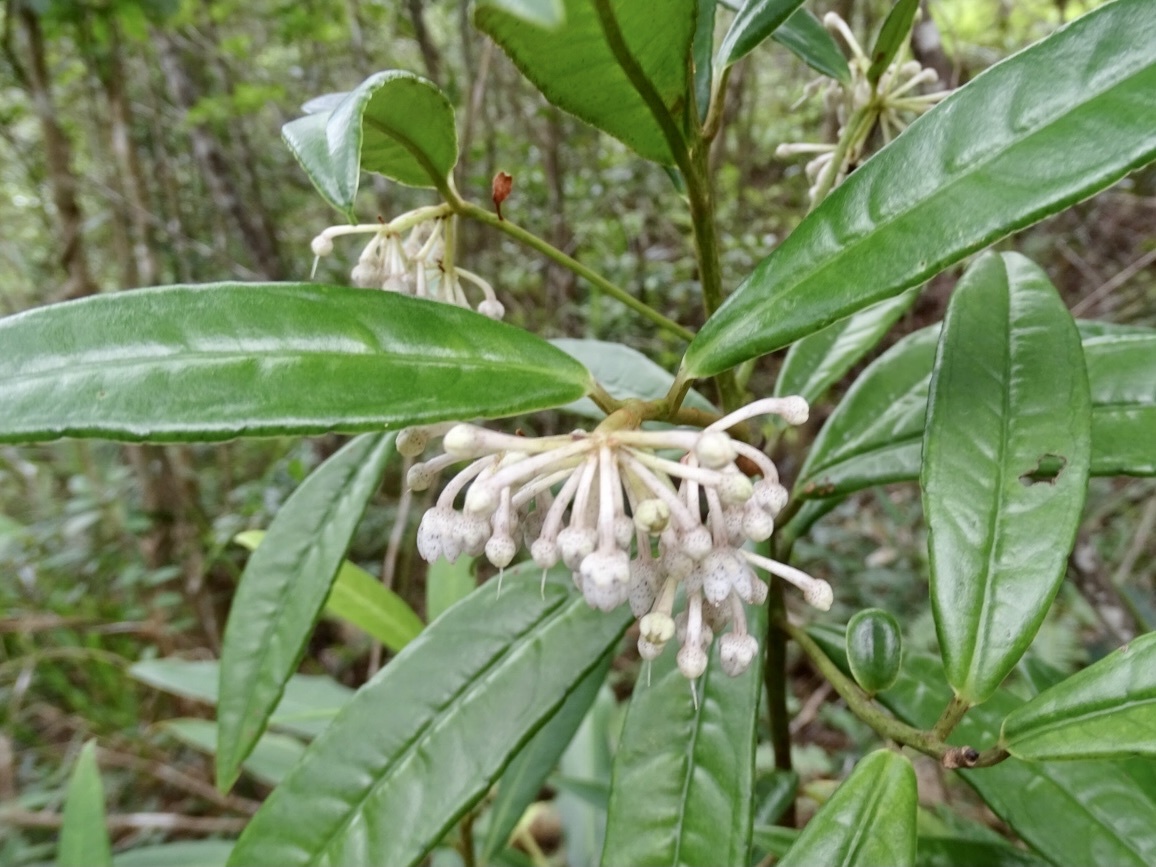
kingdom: Plantae
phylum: Tracheophyta
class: Magnoliopsida
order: Ericales
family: Primulaceae
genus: Ardisia
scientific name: Ardisia lindleyana
